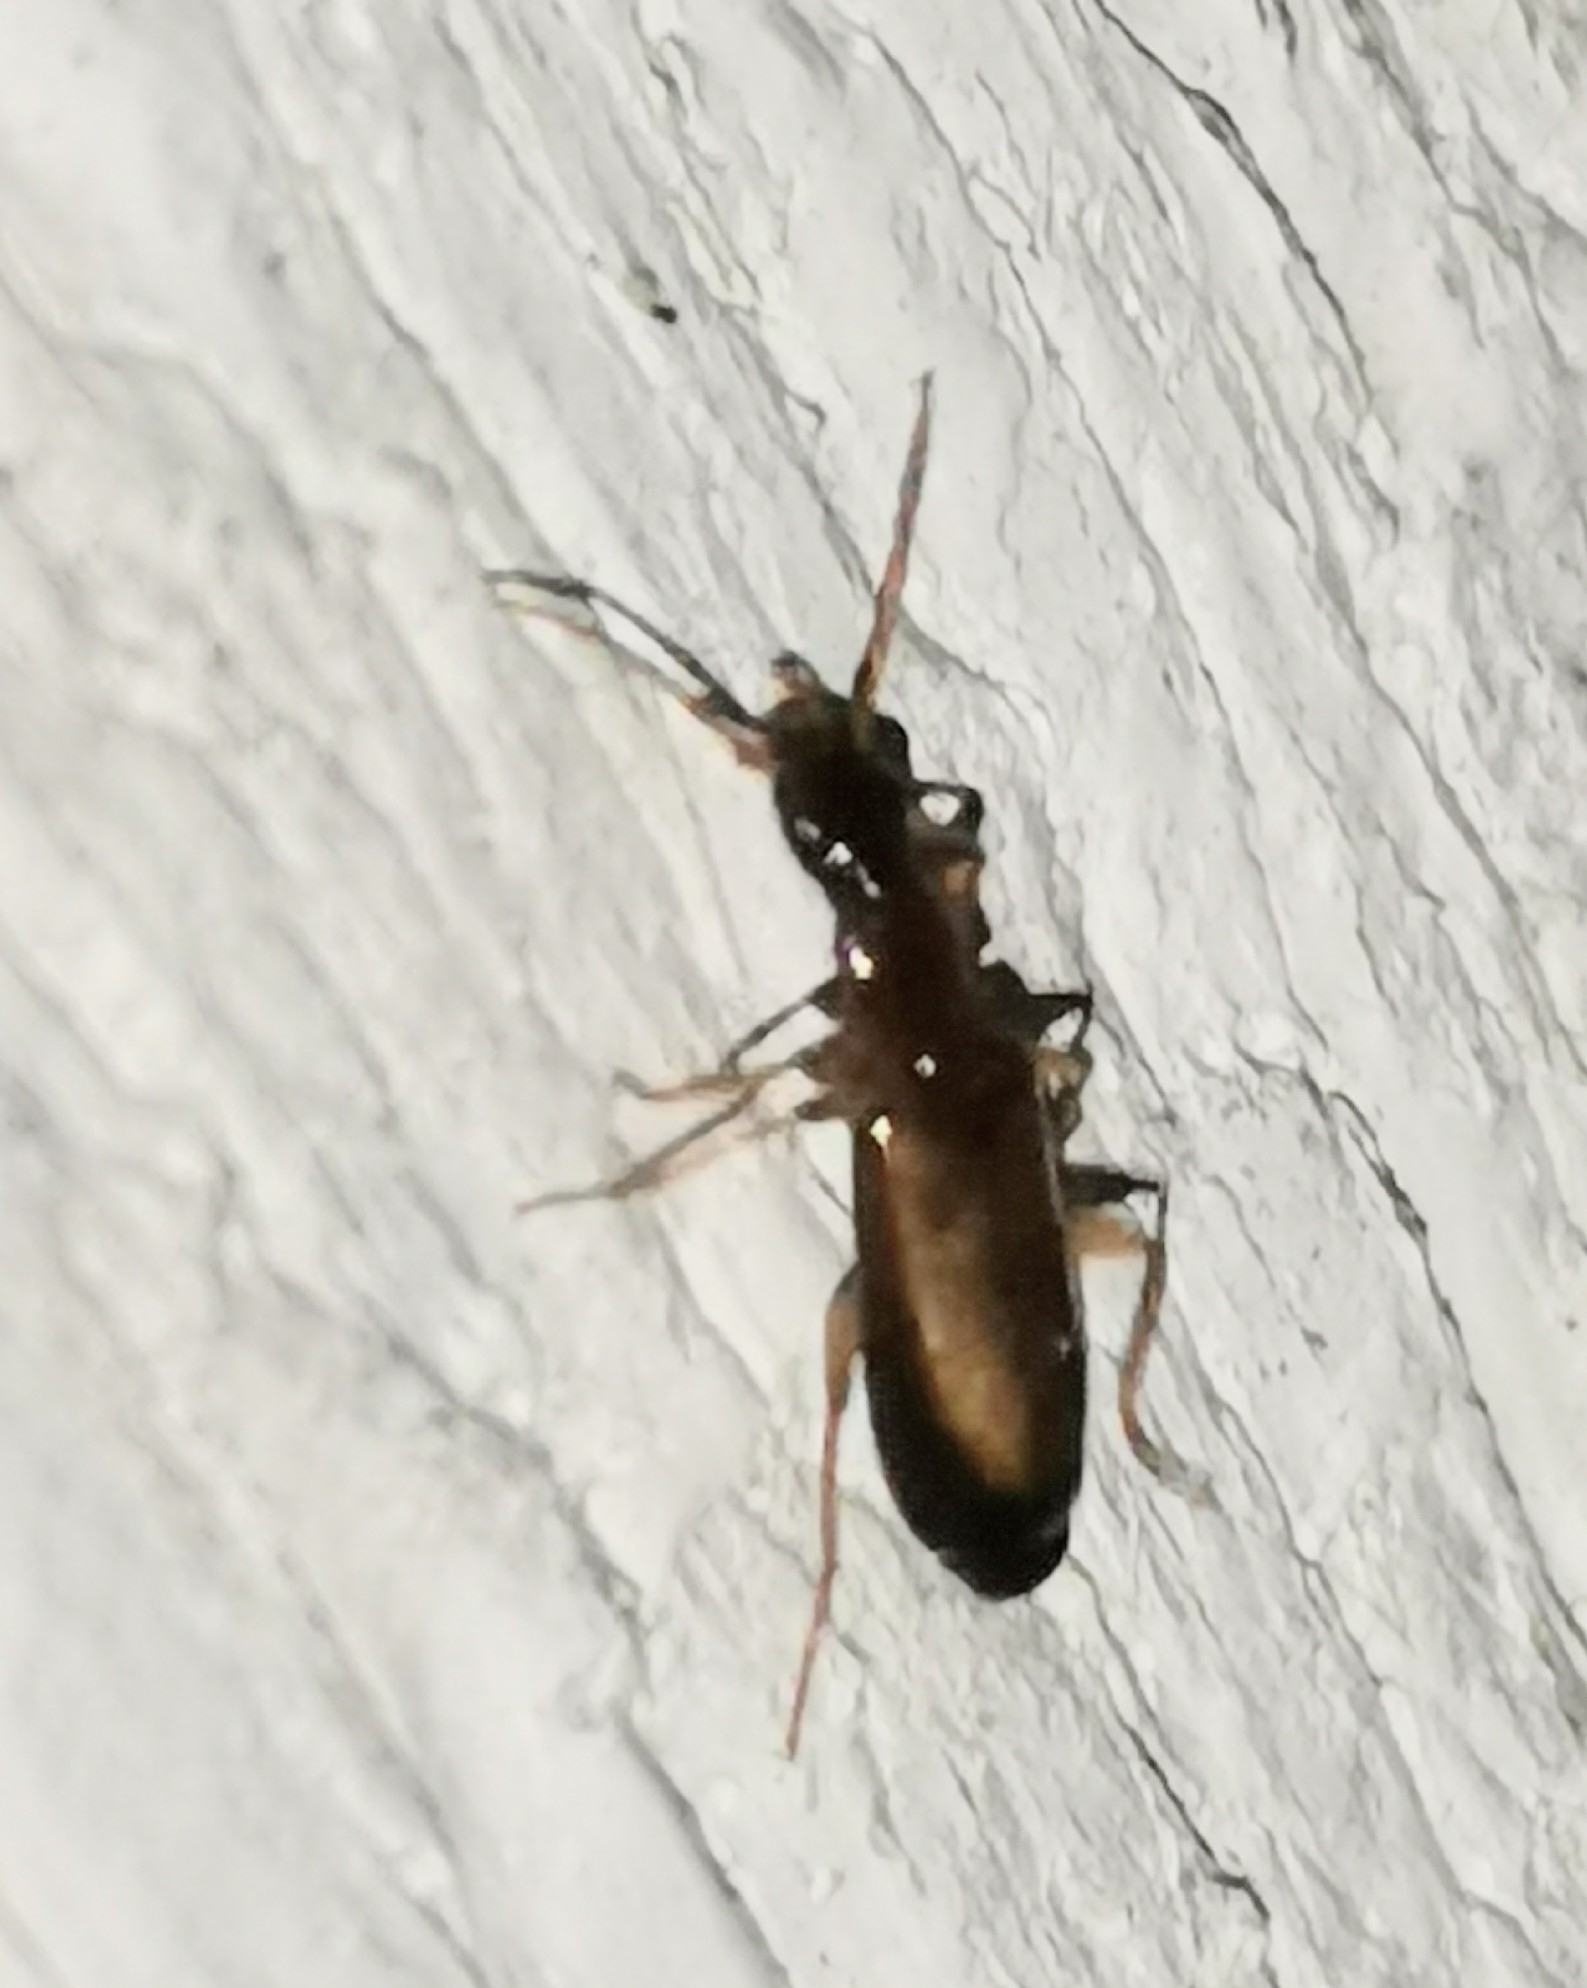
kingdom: Animalia
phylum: Arthropoda
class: Insecta
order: Coleoptera
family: Carabidae
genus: Dromius
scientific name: Dromius schneideri
